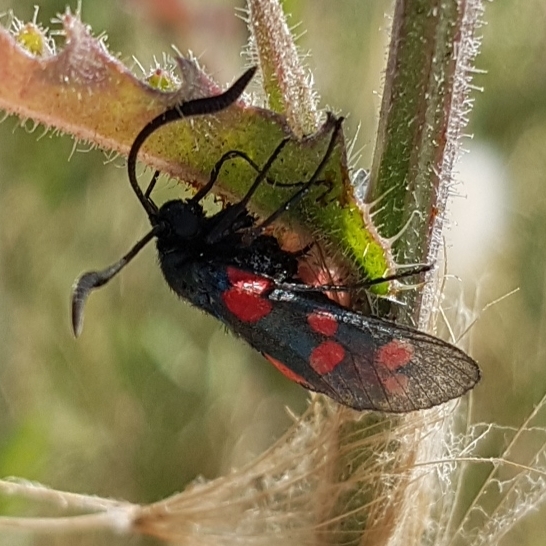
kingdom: Animalia
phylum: Arthropoda
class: Insecta
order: Lepidoptera
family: Zygaenidae
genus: Zygaena
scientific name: Zygaena filipendulae
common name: Six-spot burnet
